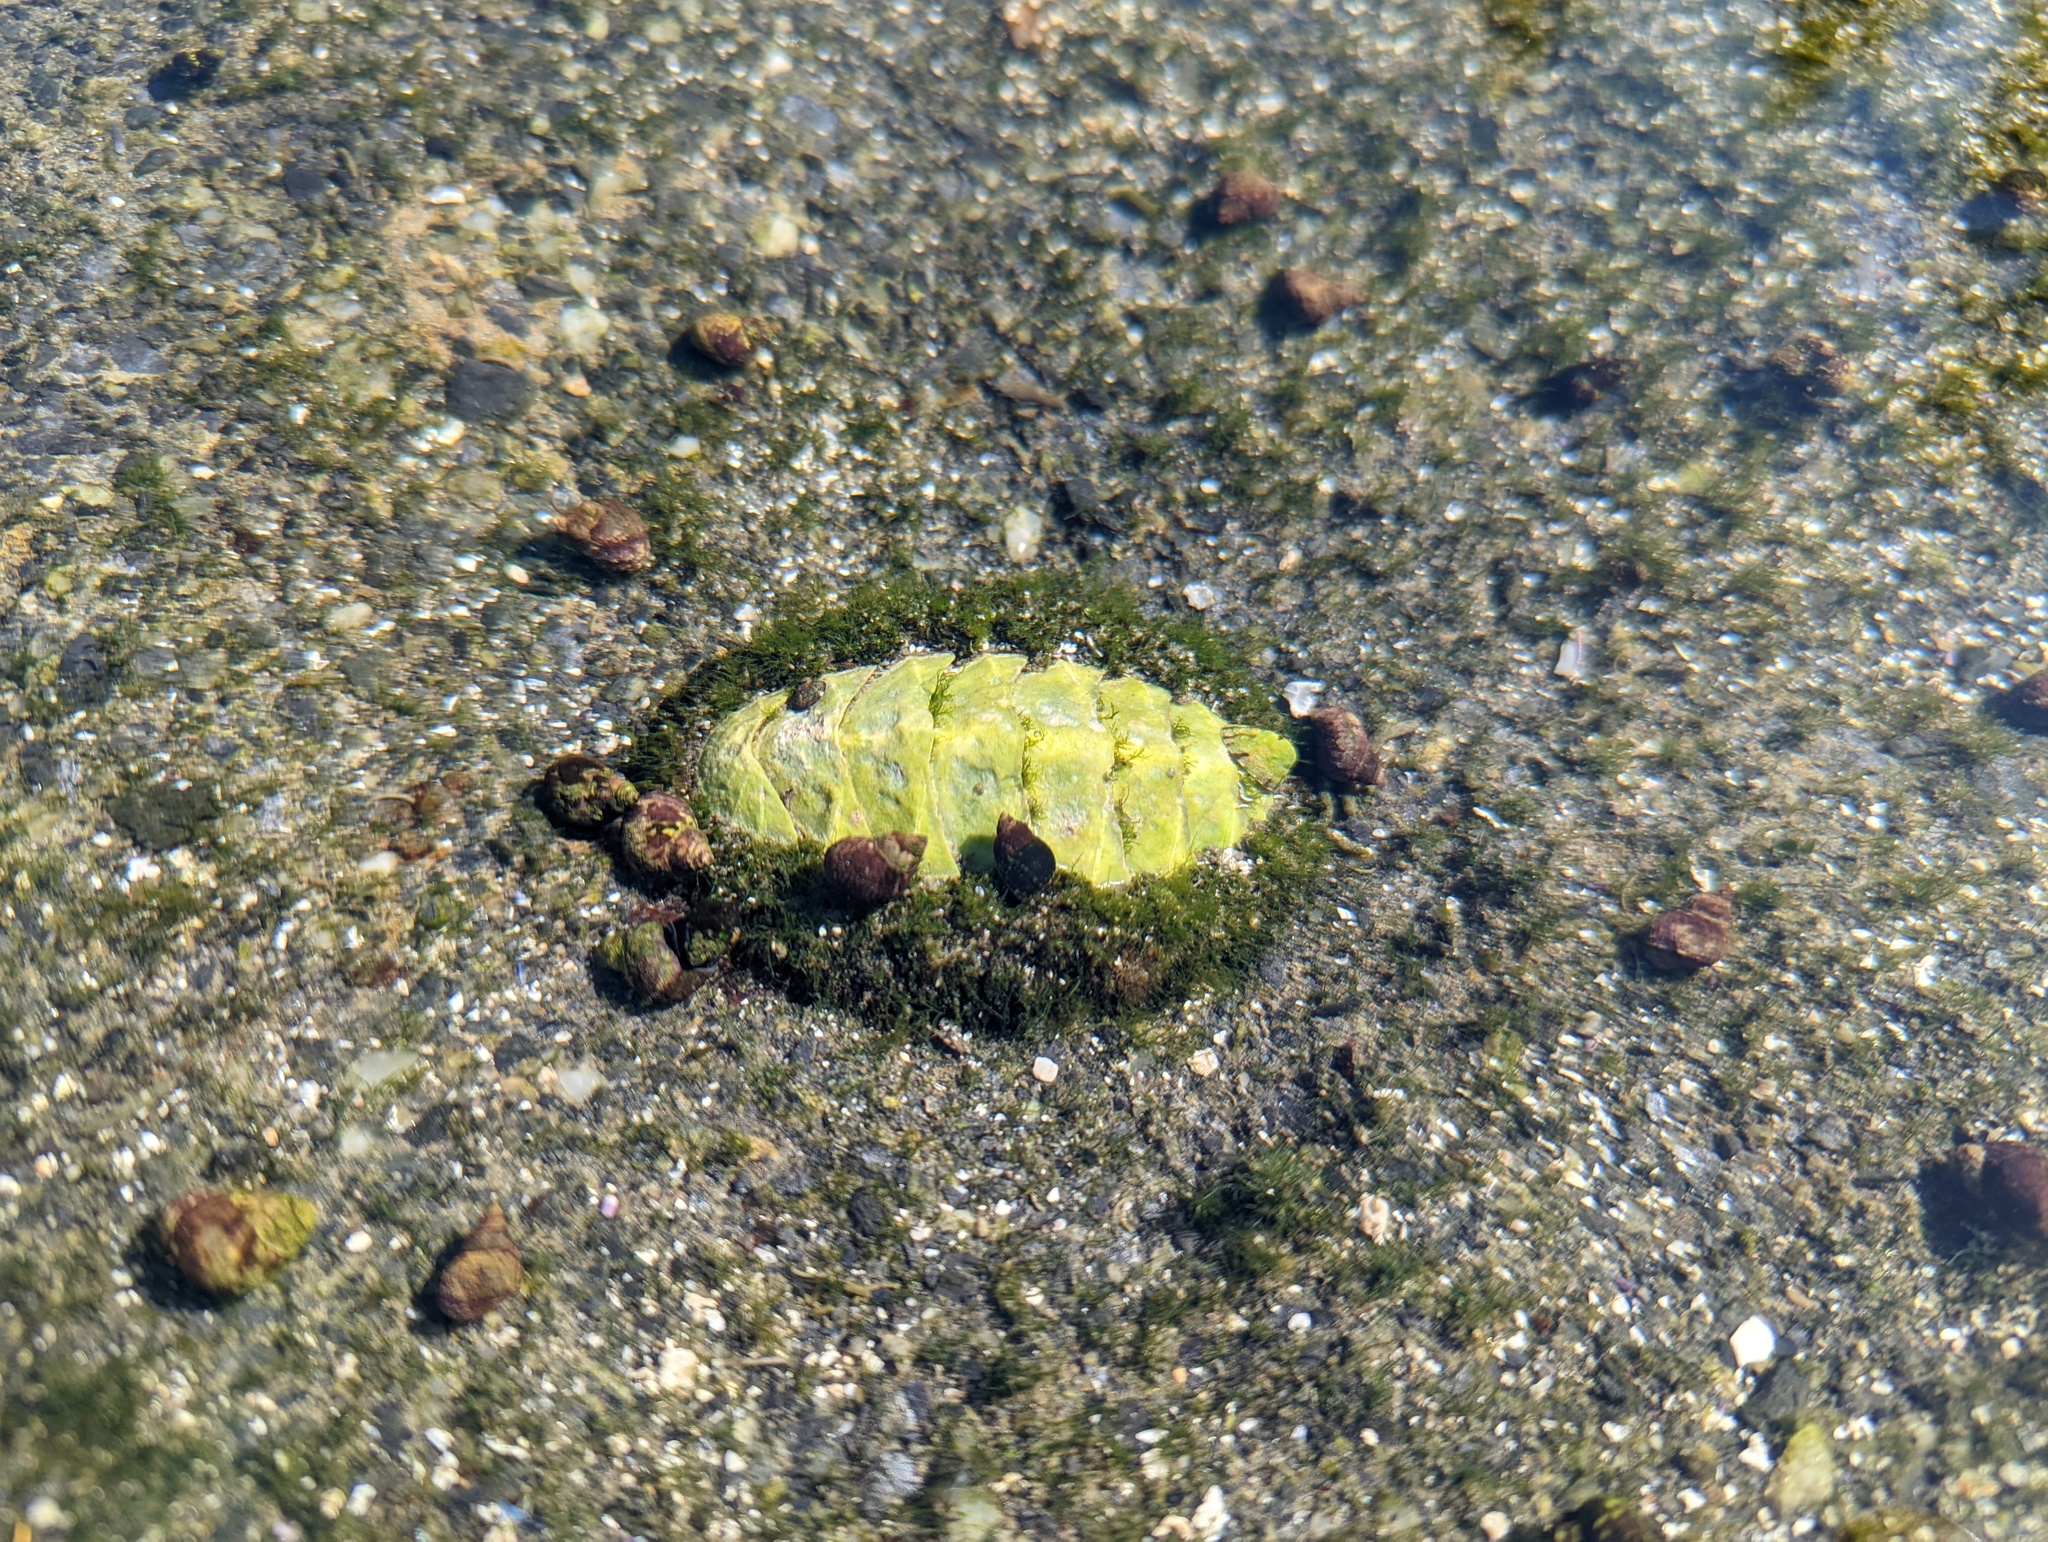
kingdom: Animalia
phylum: Mollusca
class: Polyplacophora
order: Chitonida
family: Mopaliidae
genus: Mopalia
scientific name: Mopalia muscosa
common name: Mossy chiton
